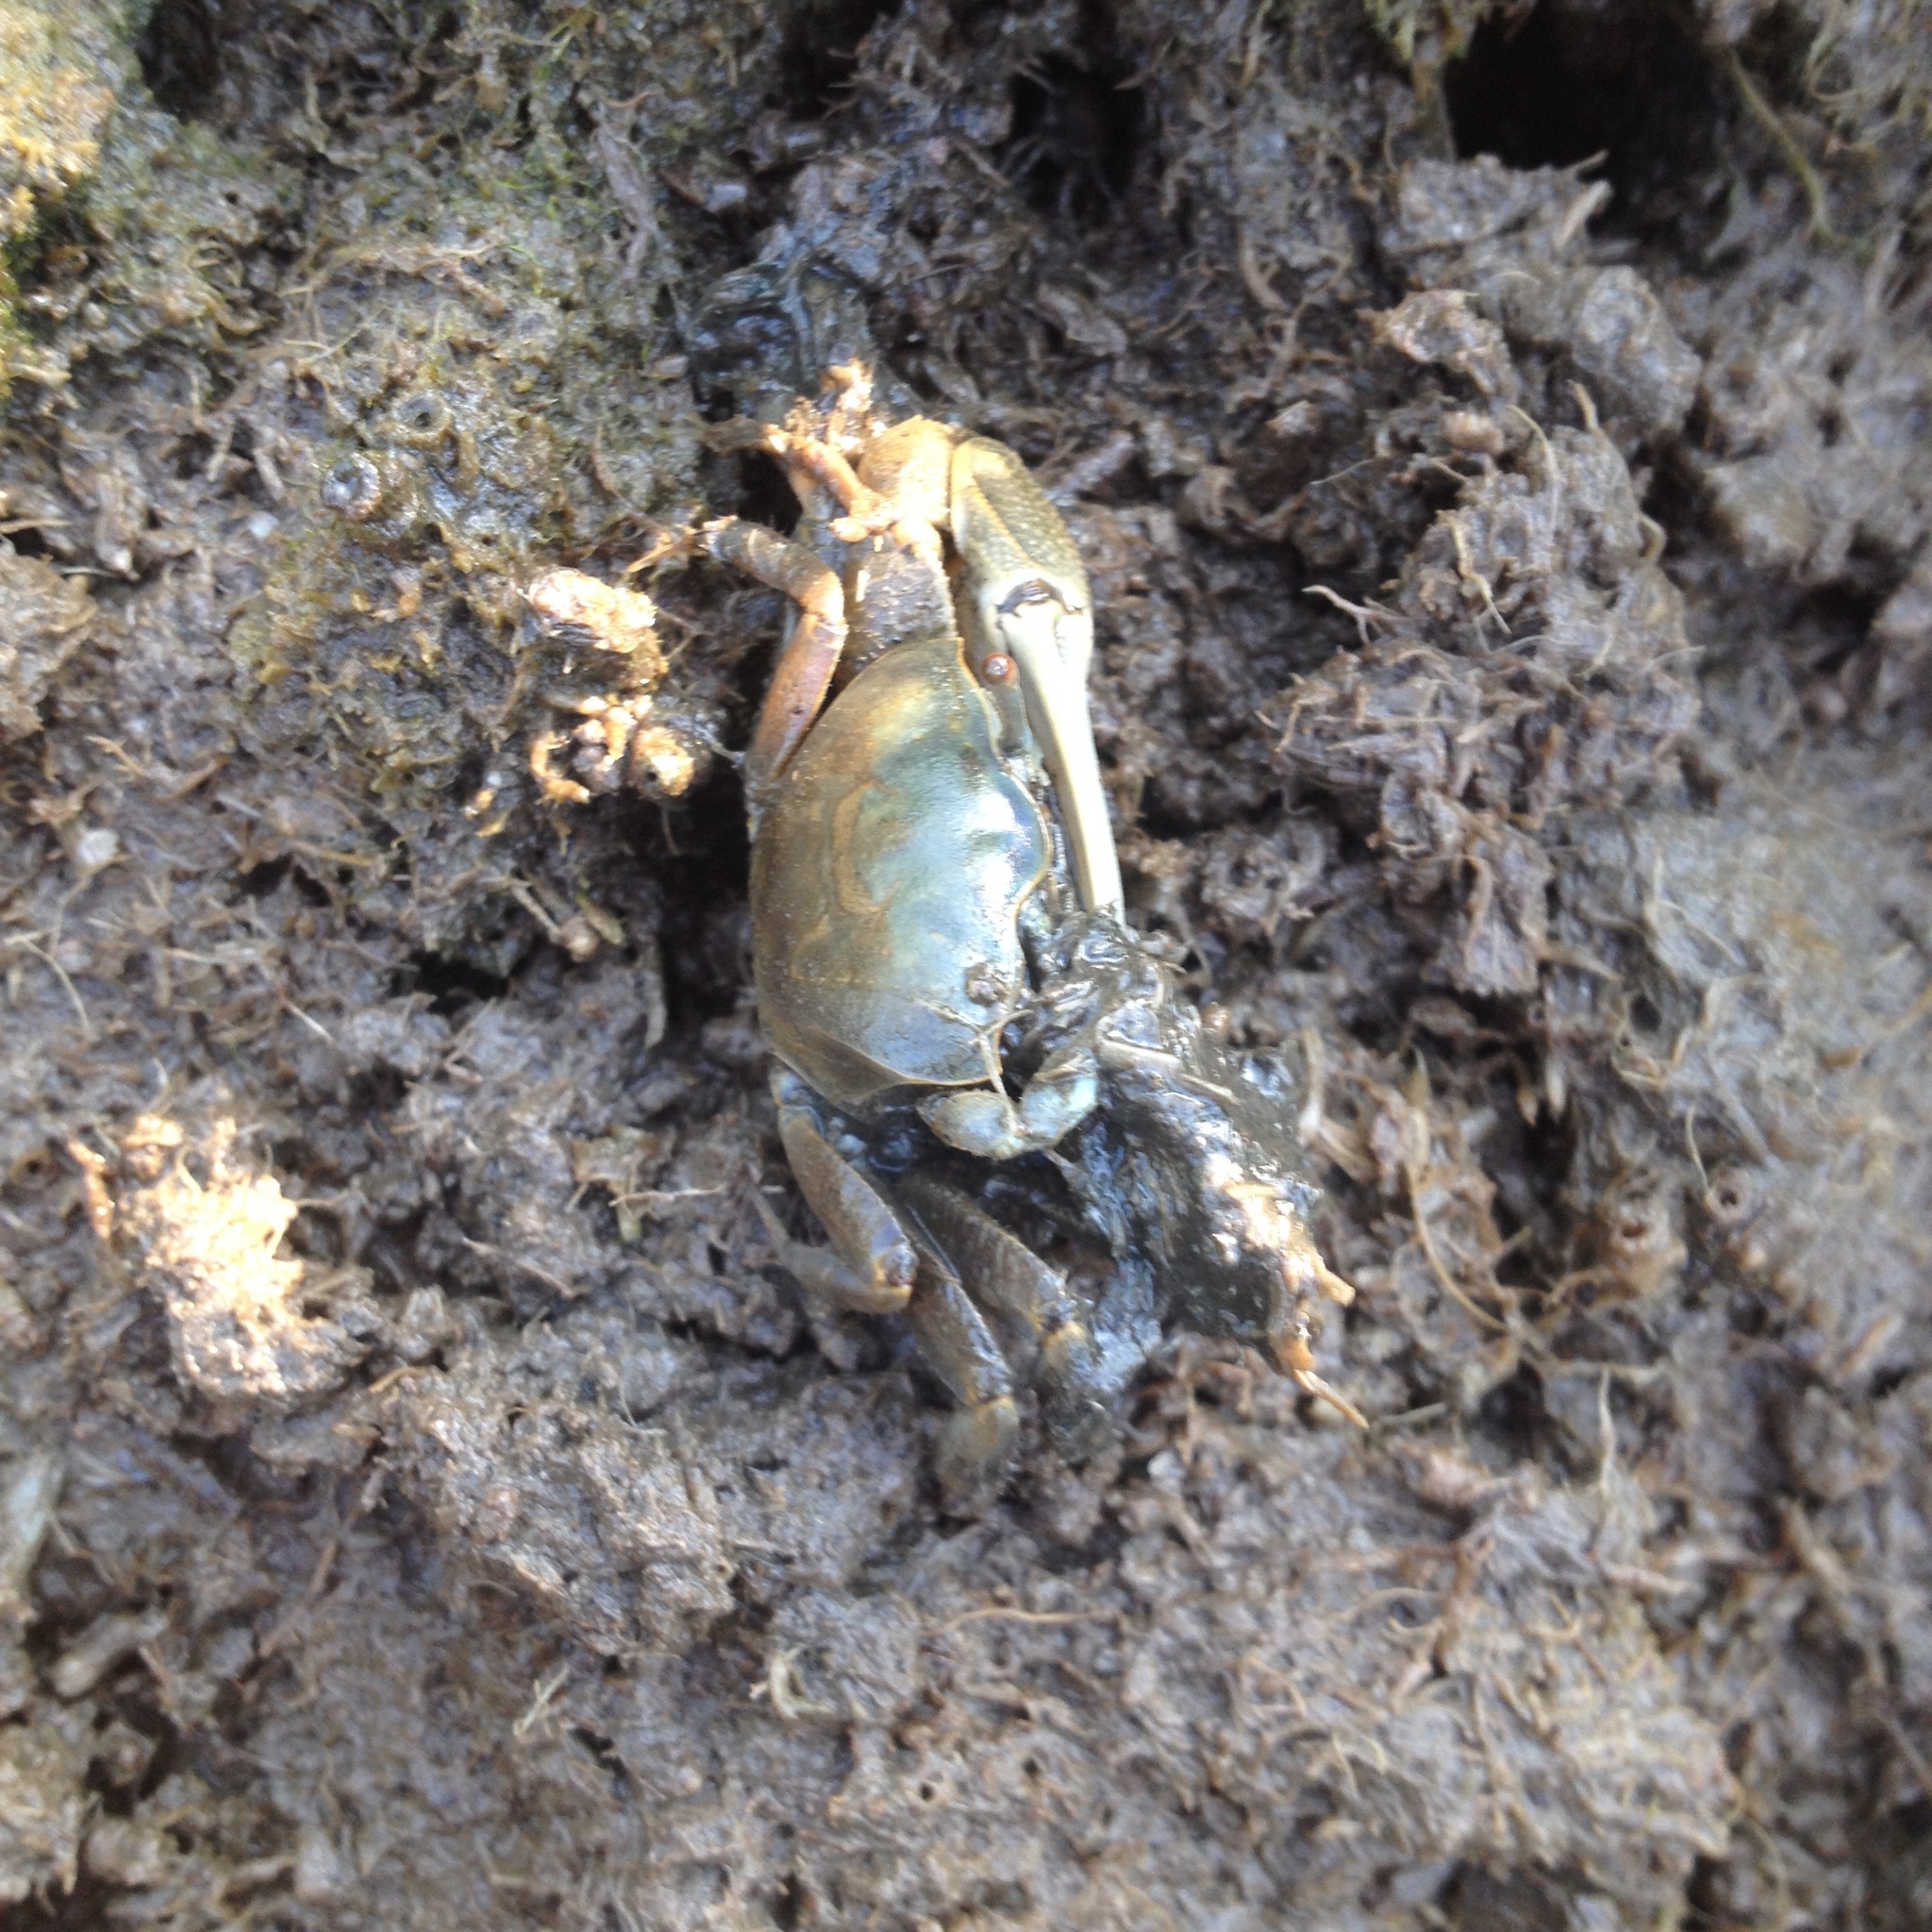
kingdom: Animalia
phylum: Arthropoda
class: Malacostraca
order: Decapoda
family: Ocypodidae
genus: Minuca
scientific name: Minuca pugnax
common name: Mud fiddler crab
